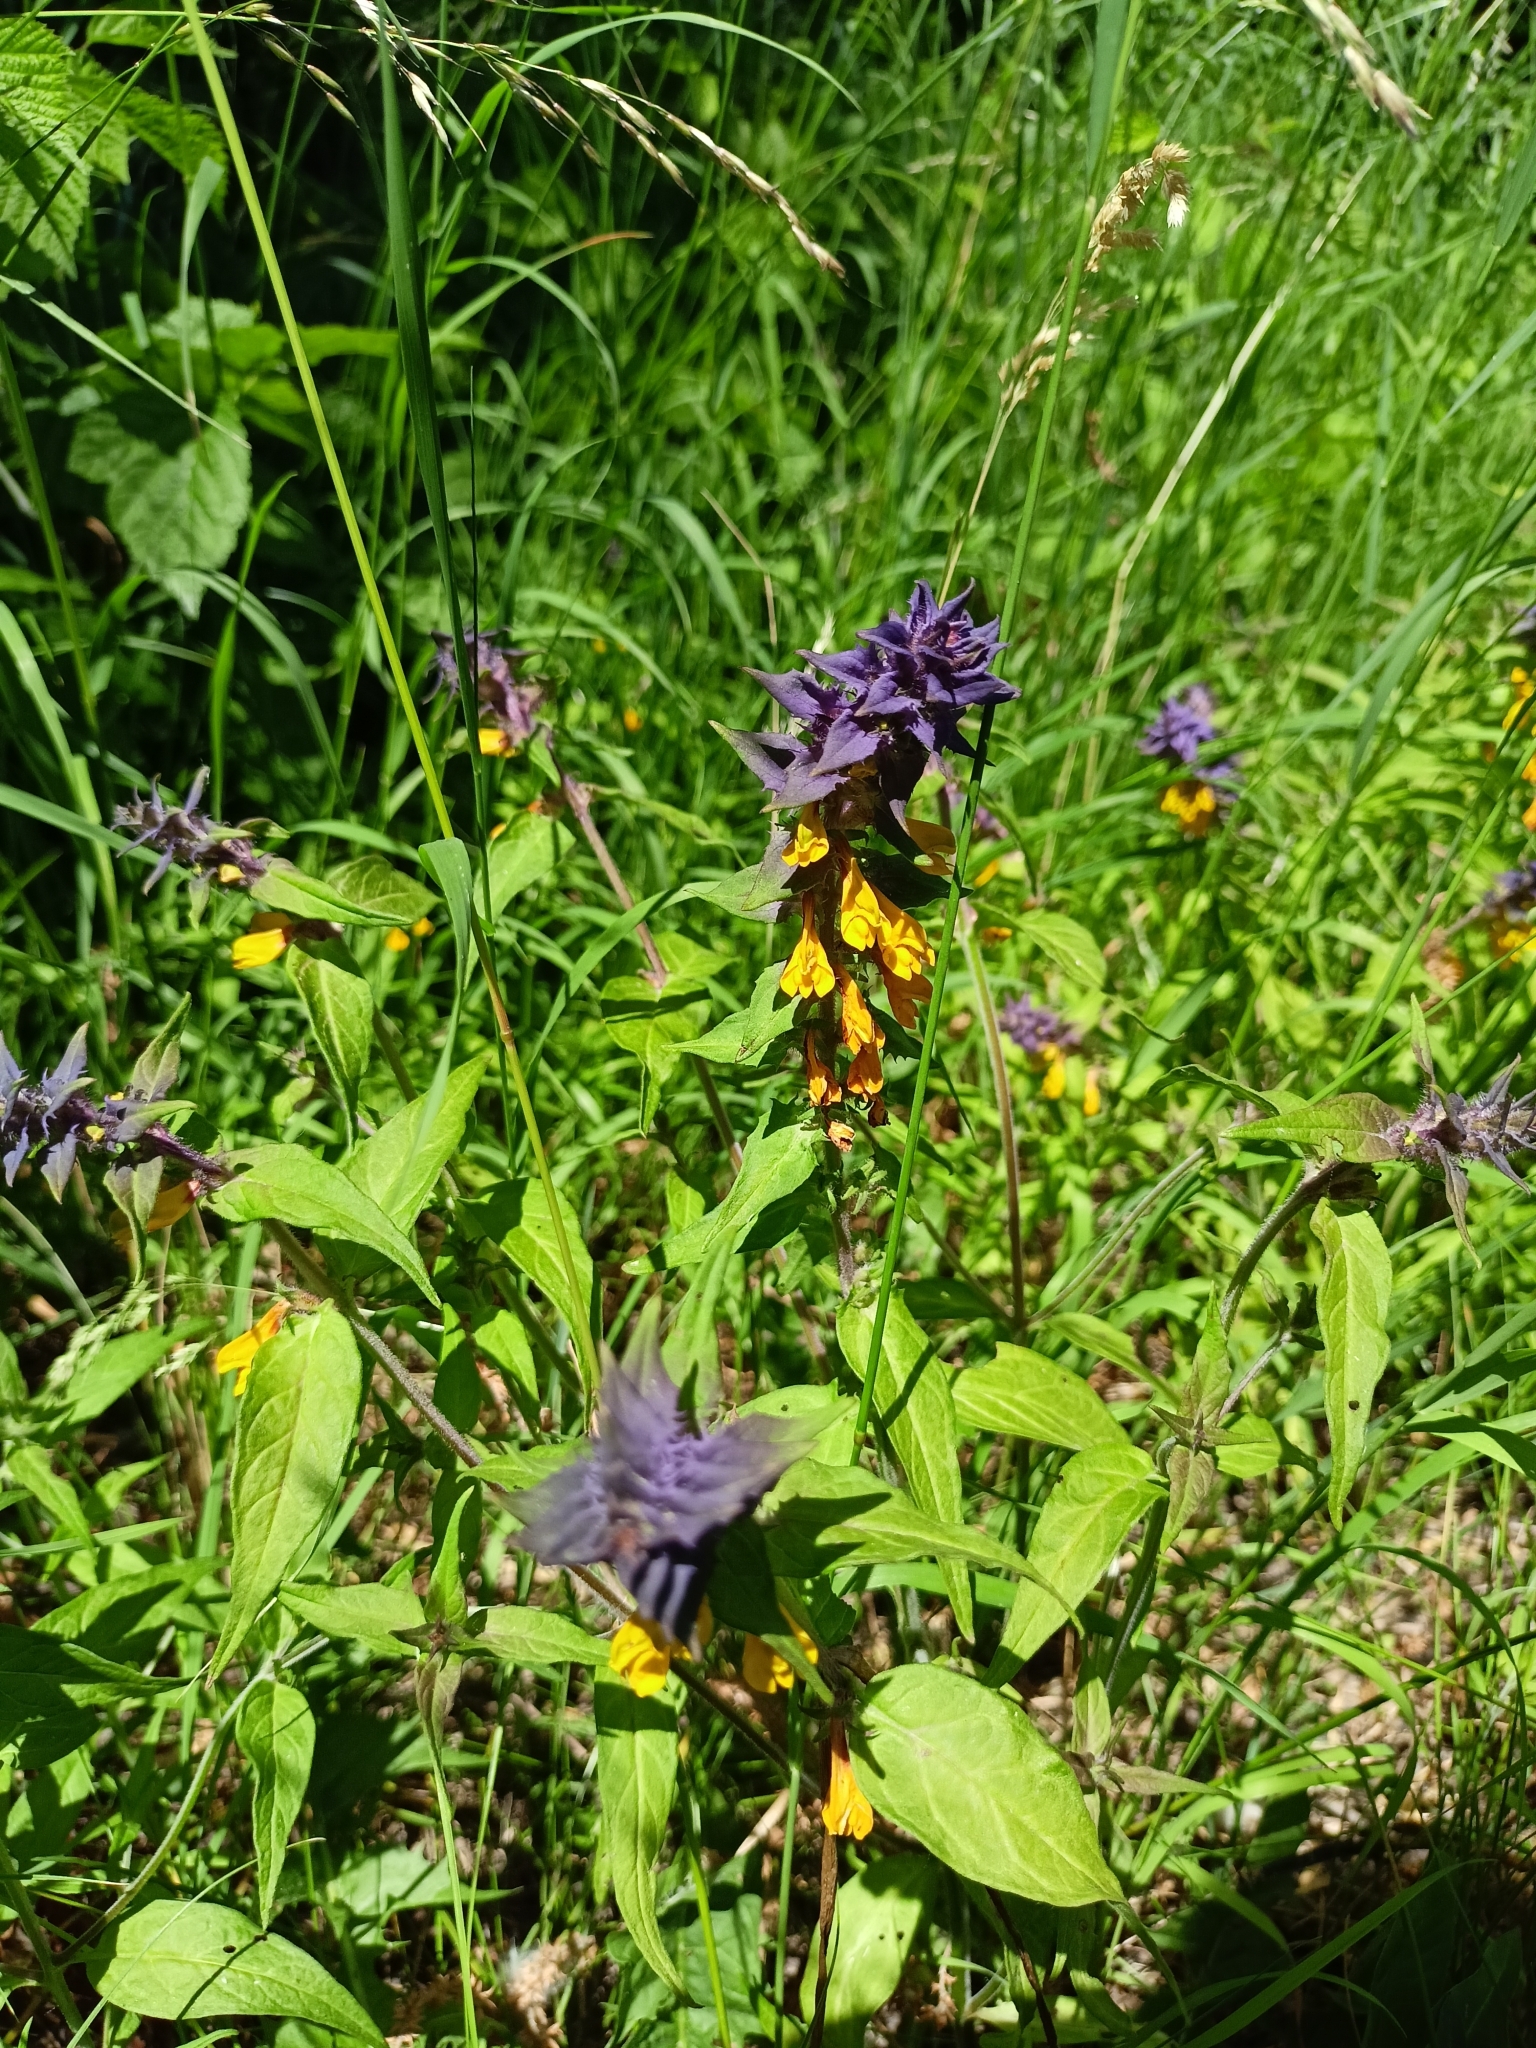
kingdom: Plantae
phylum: Tracheophyta
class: Magnoliopsida
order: Lamiales
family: Orobanchaceae
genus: Melampyrum
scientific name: Melampyrum nemorosum
